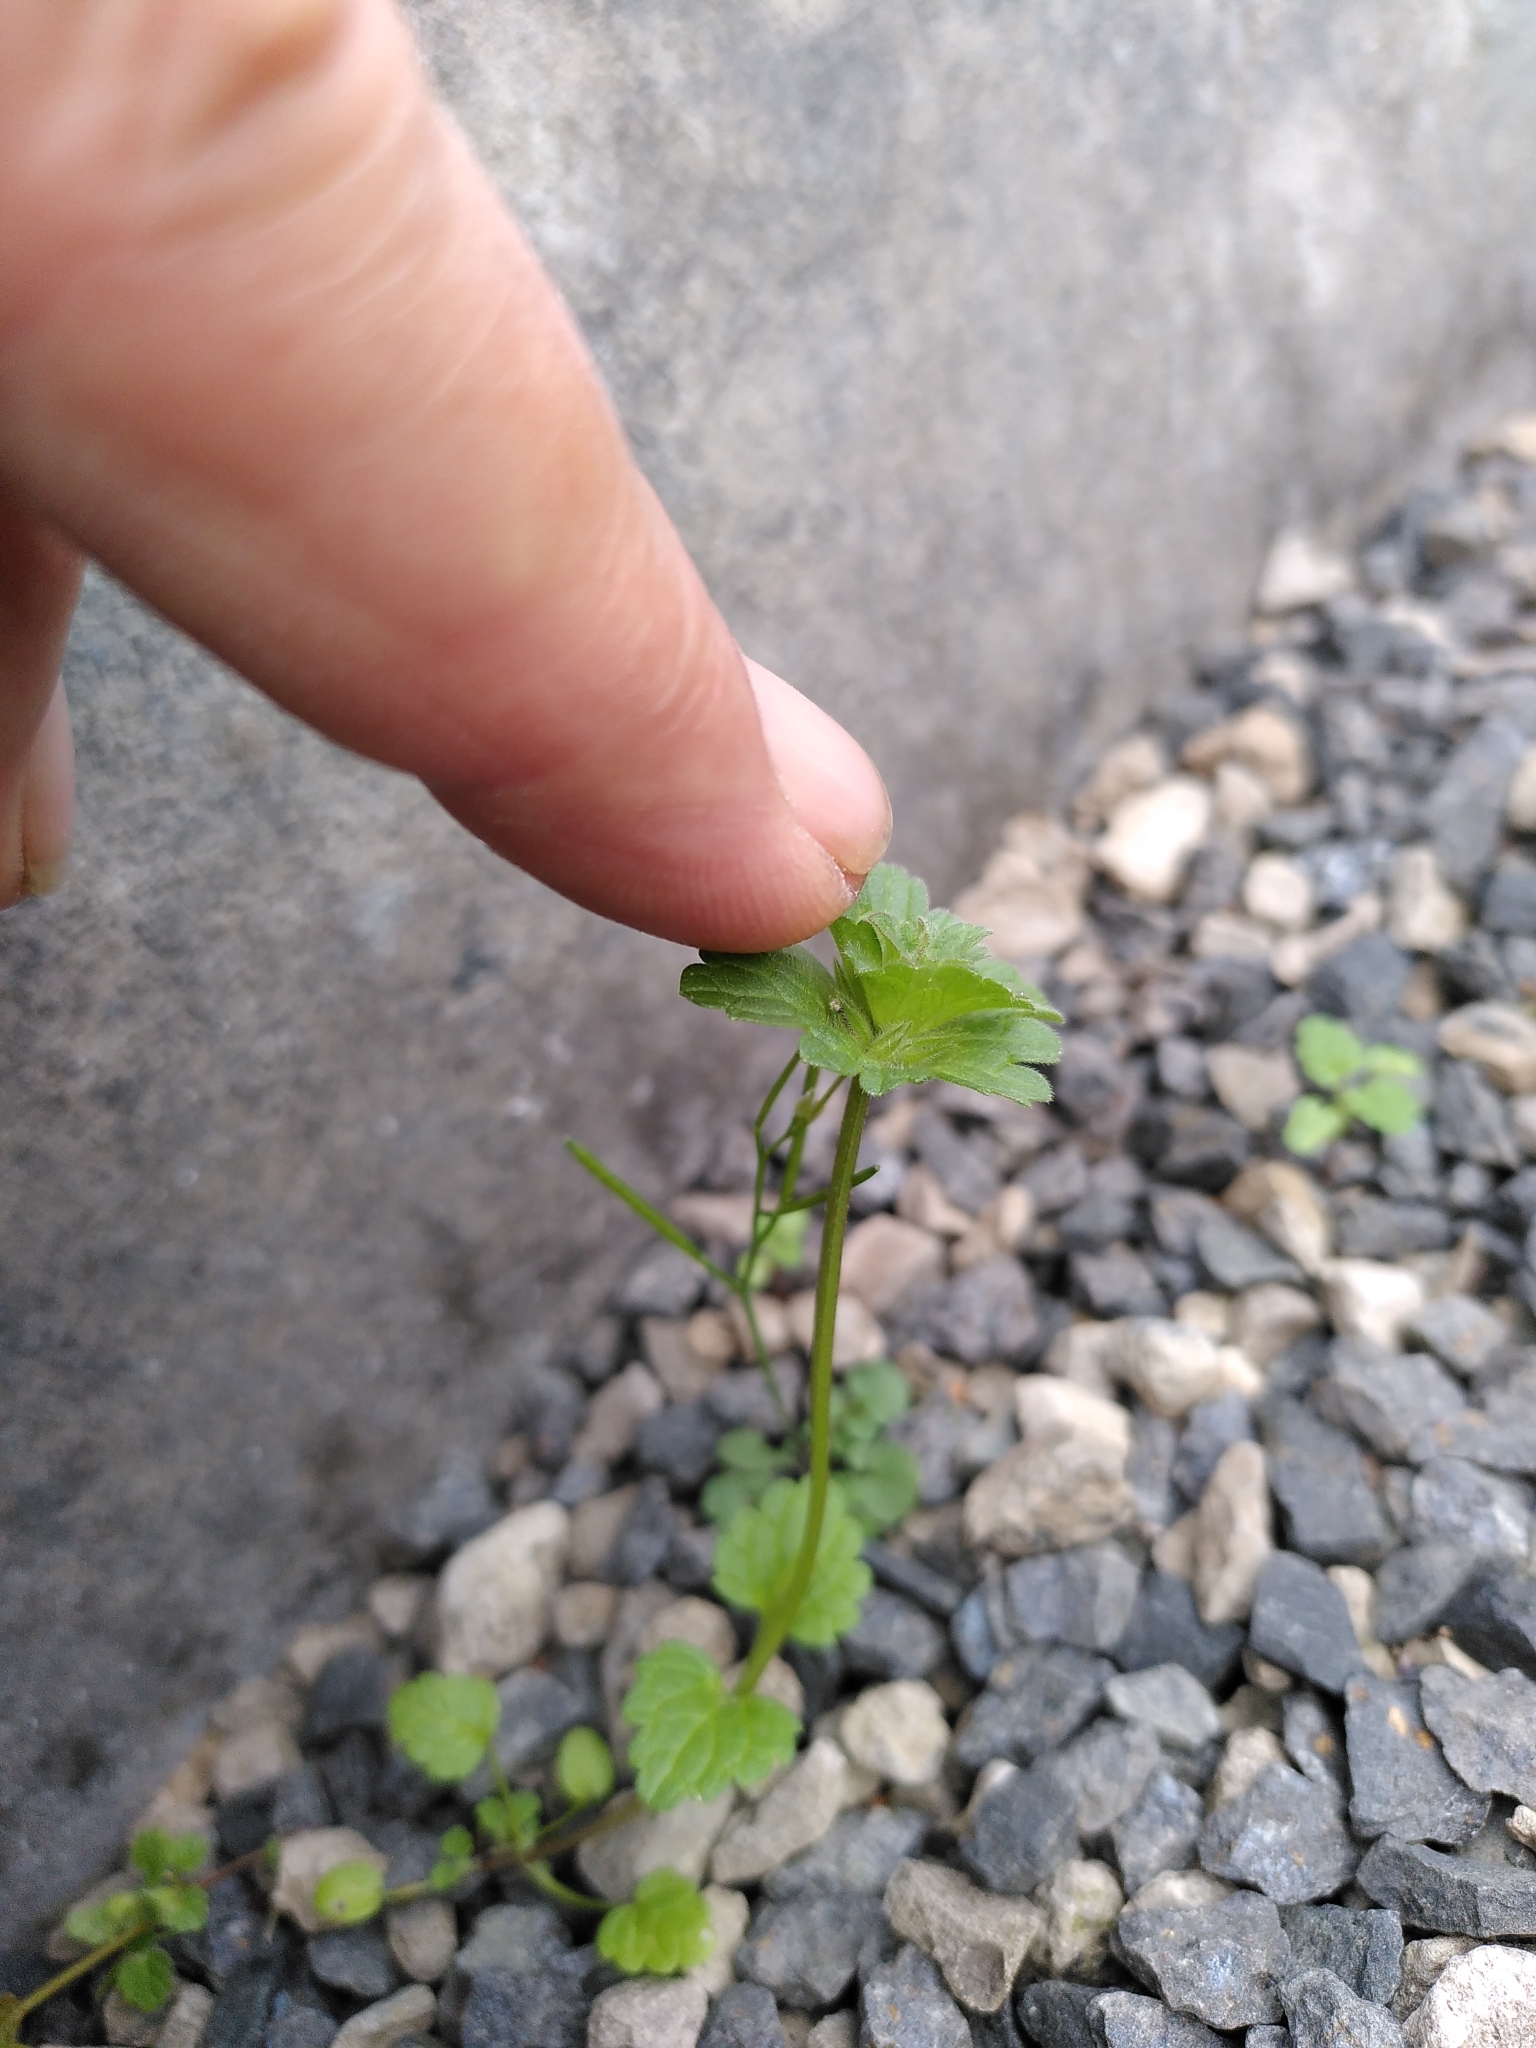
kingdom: Plantae
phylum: Tracheophyta
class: Magnoliopsida
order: Lamiales
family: Lamiaceae
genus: Lamium
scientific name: Lamium amplexicaule
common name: Henbit dead-nettle
